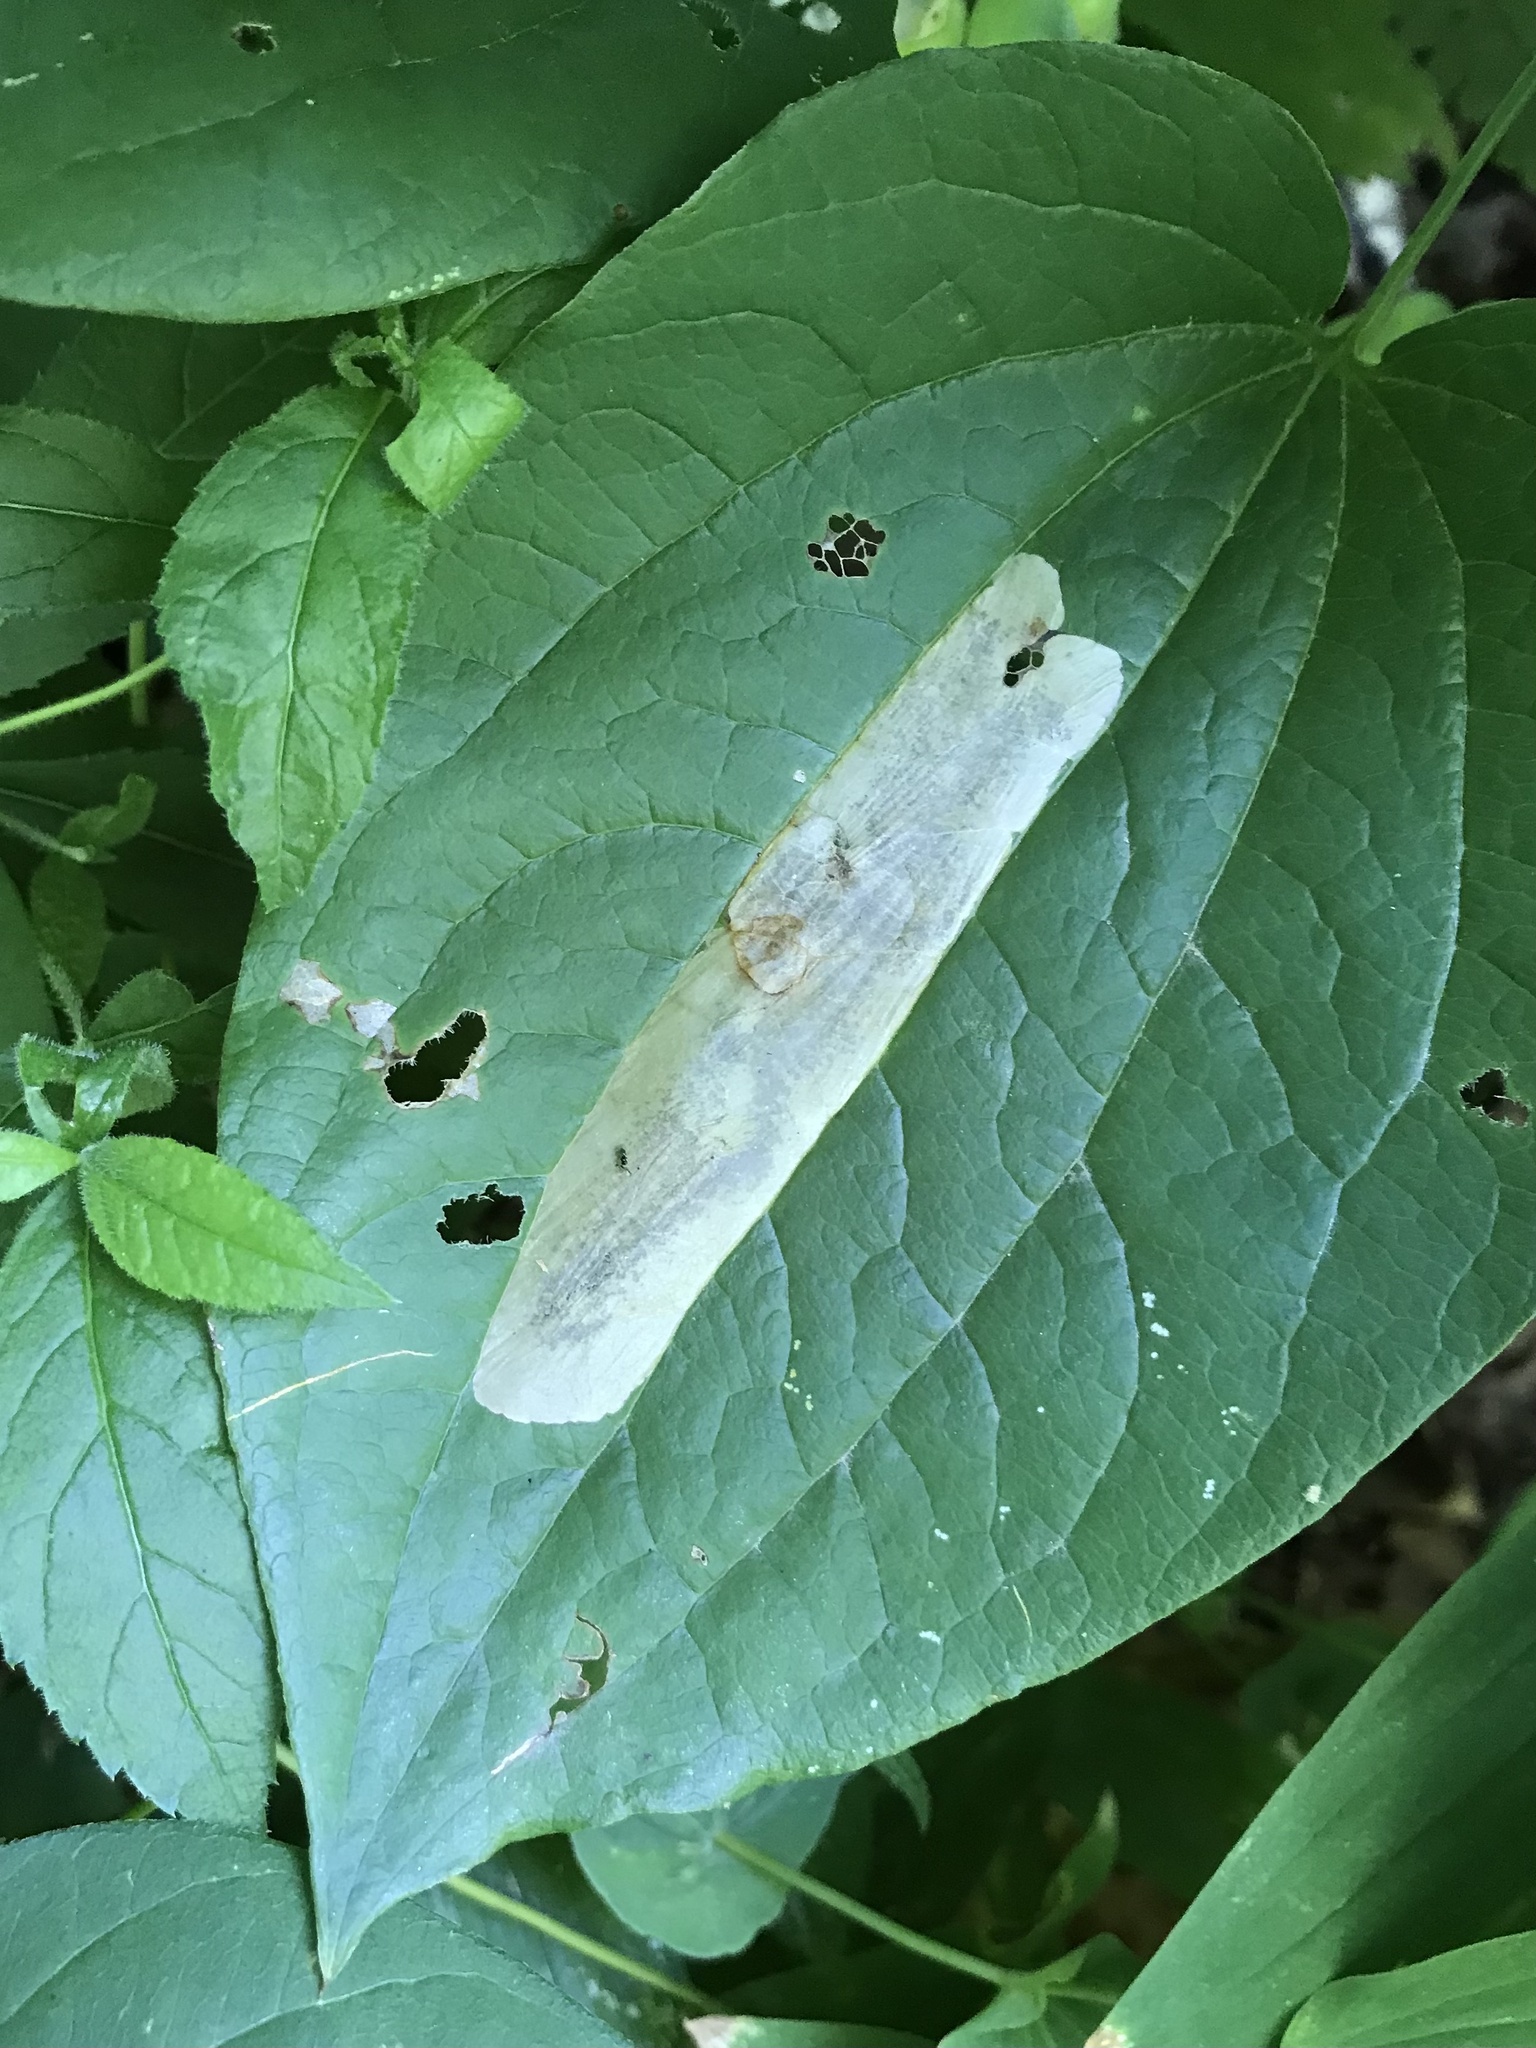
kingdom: Animalia
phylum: Arthropoda
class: Insecta
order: Lepidoptera
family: Lyonetiidae
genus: Leucoptera
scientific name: Leucoptera
